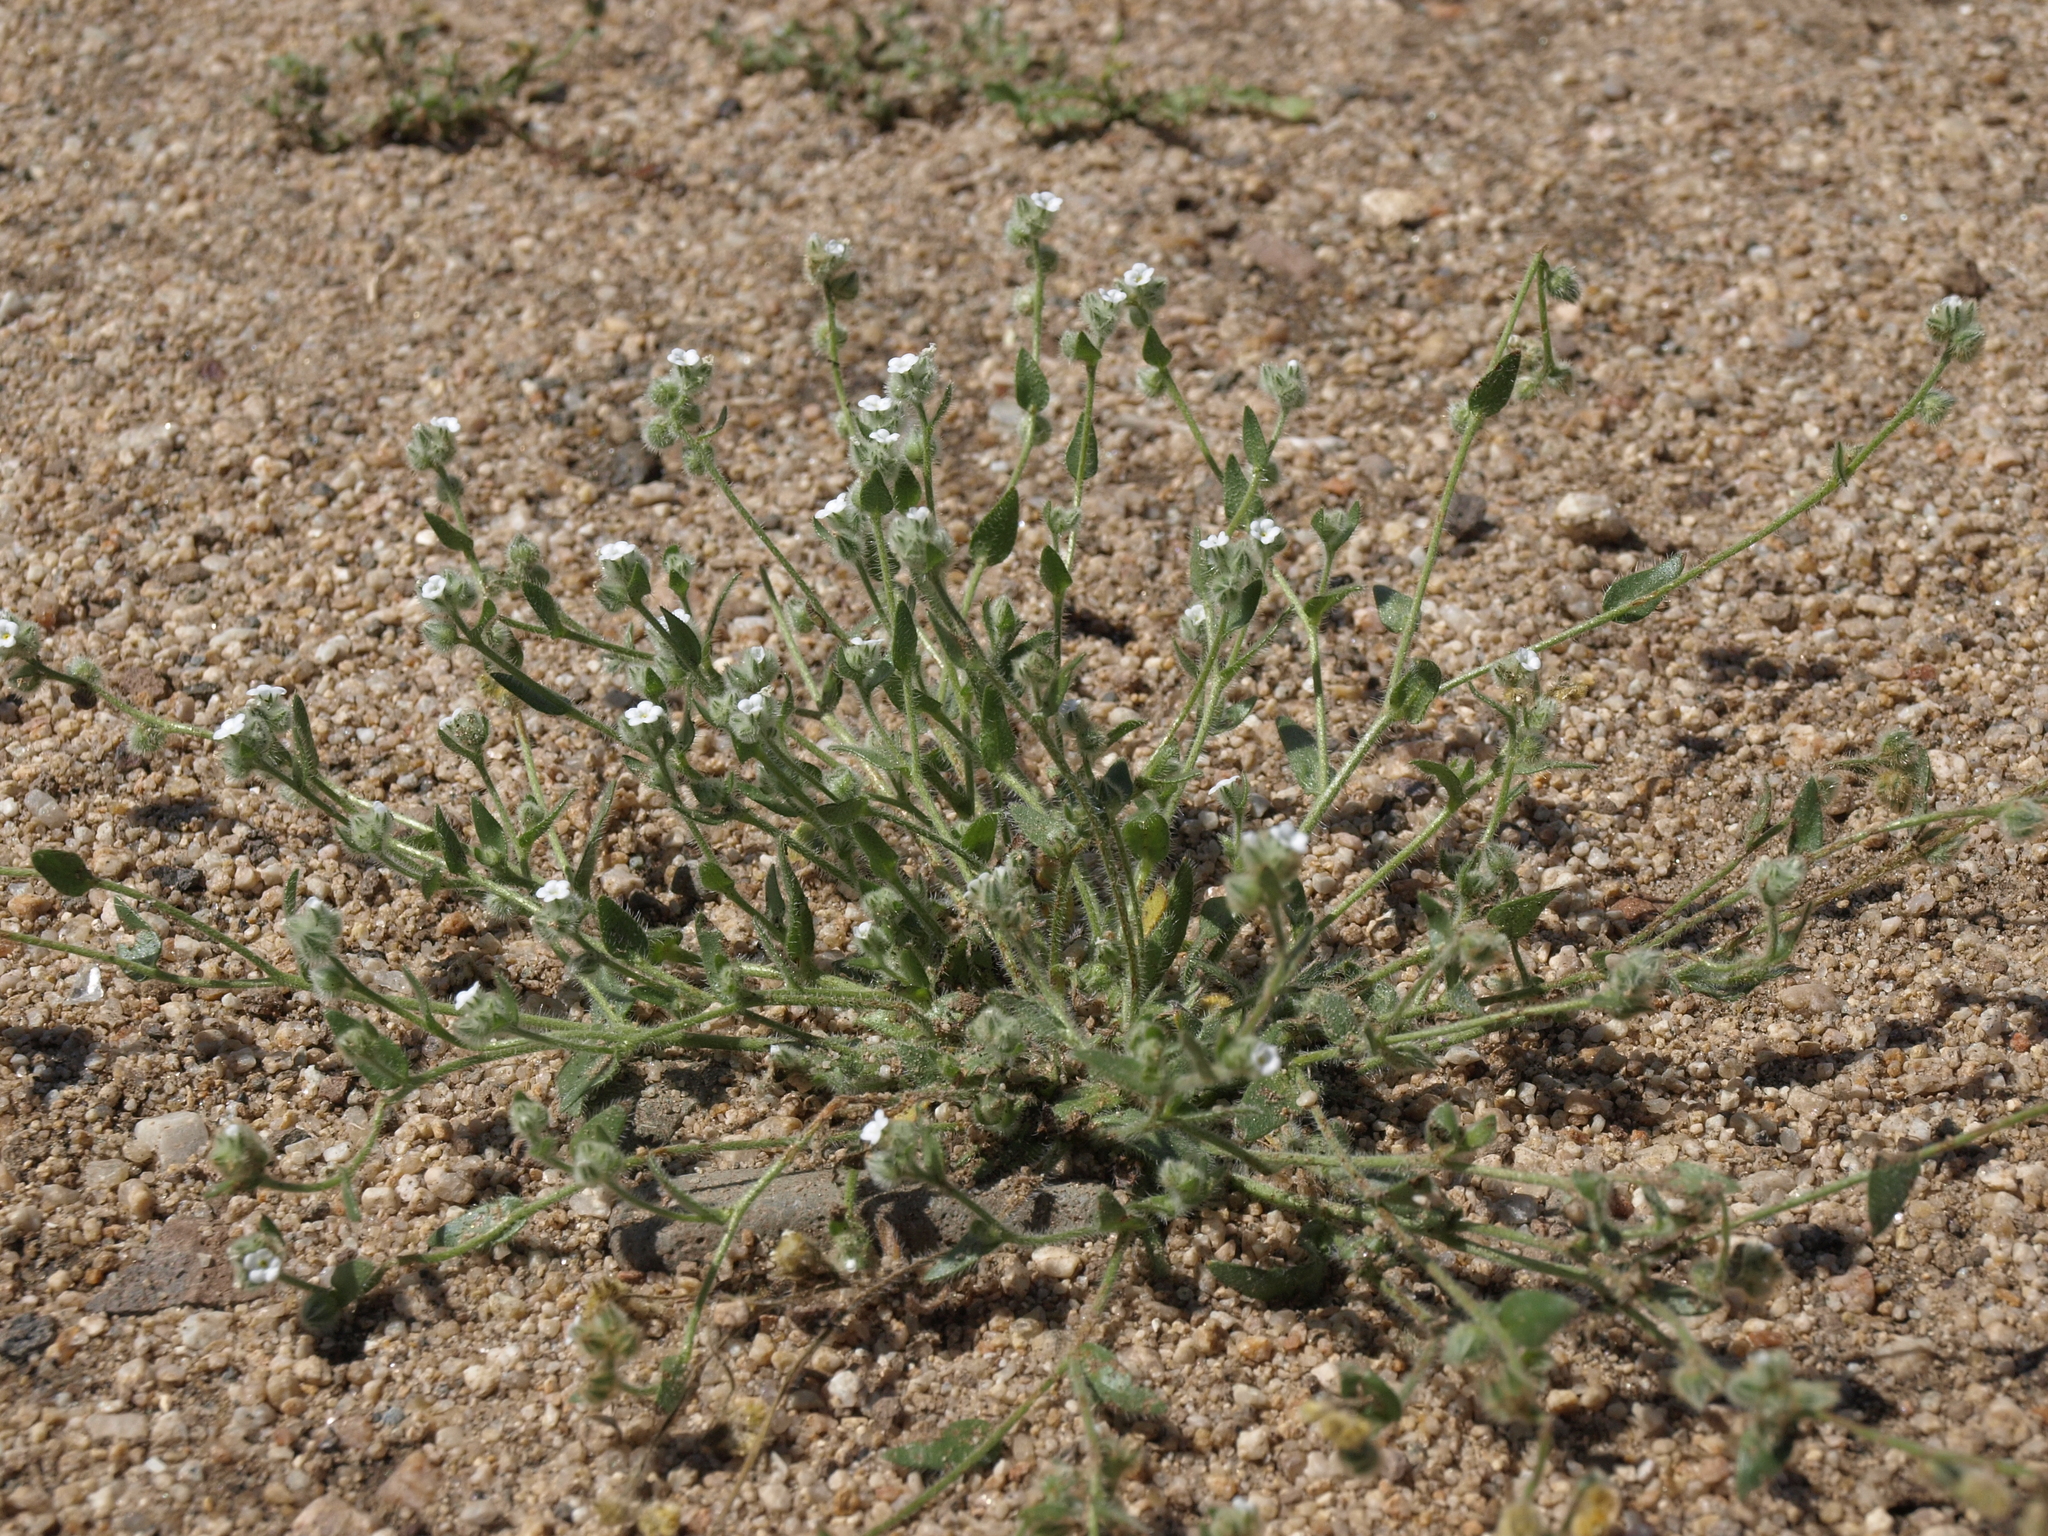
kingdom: Plantae
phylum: Tracheophyta
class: Magnoliopsida
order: Boraginales
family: Boraginaceae
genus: Plagiobothrys
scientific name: Plagiobothrys tenellus
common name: Pacific popcornflower
